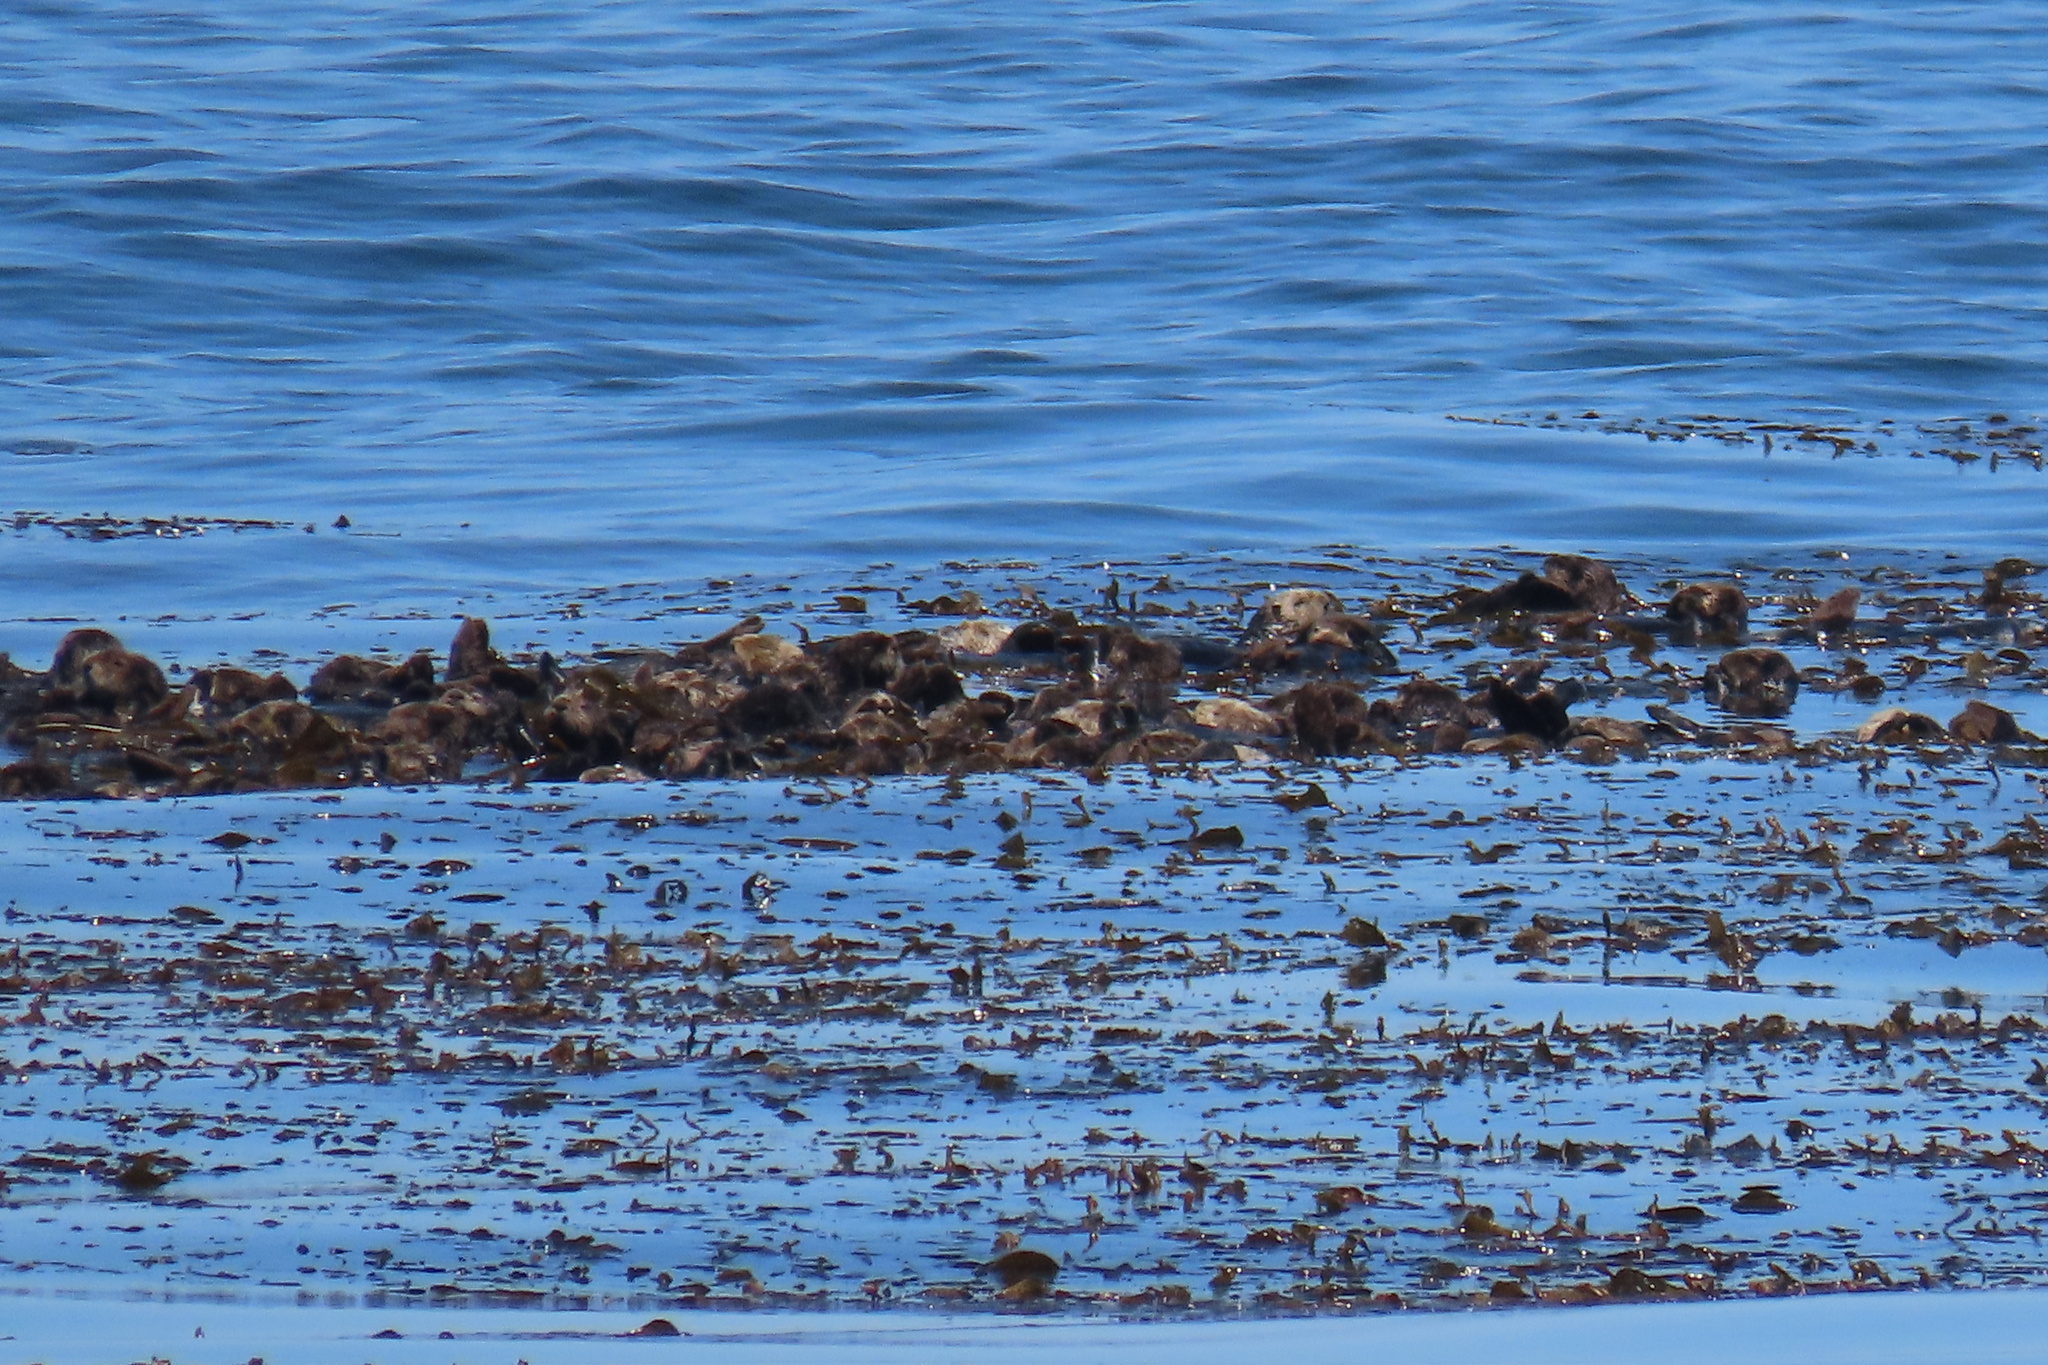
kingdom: Animalia
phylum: Chordata
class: Mammalia
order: Carnivora
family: Mustelidae
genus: Enhydra
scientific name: Enhydra lutris
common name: Sea otter
